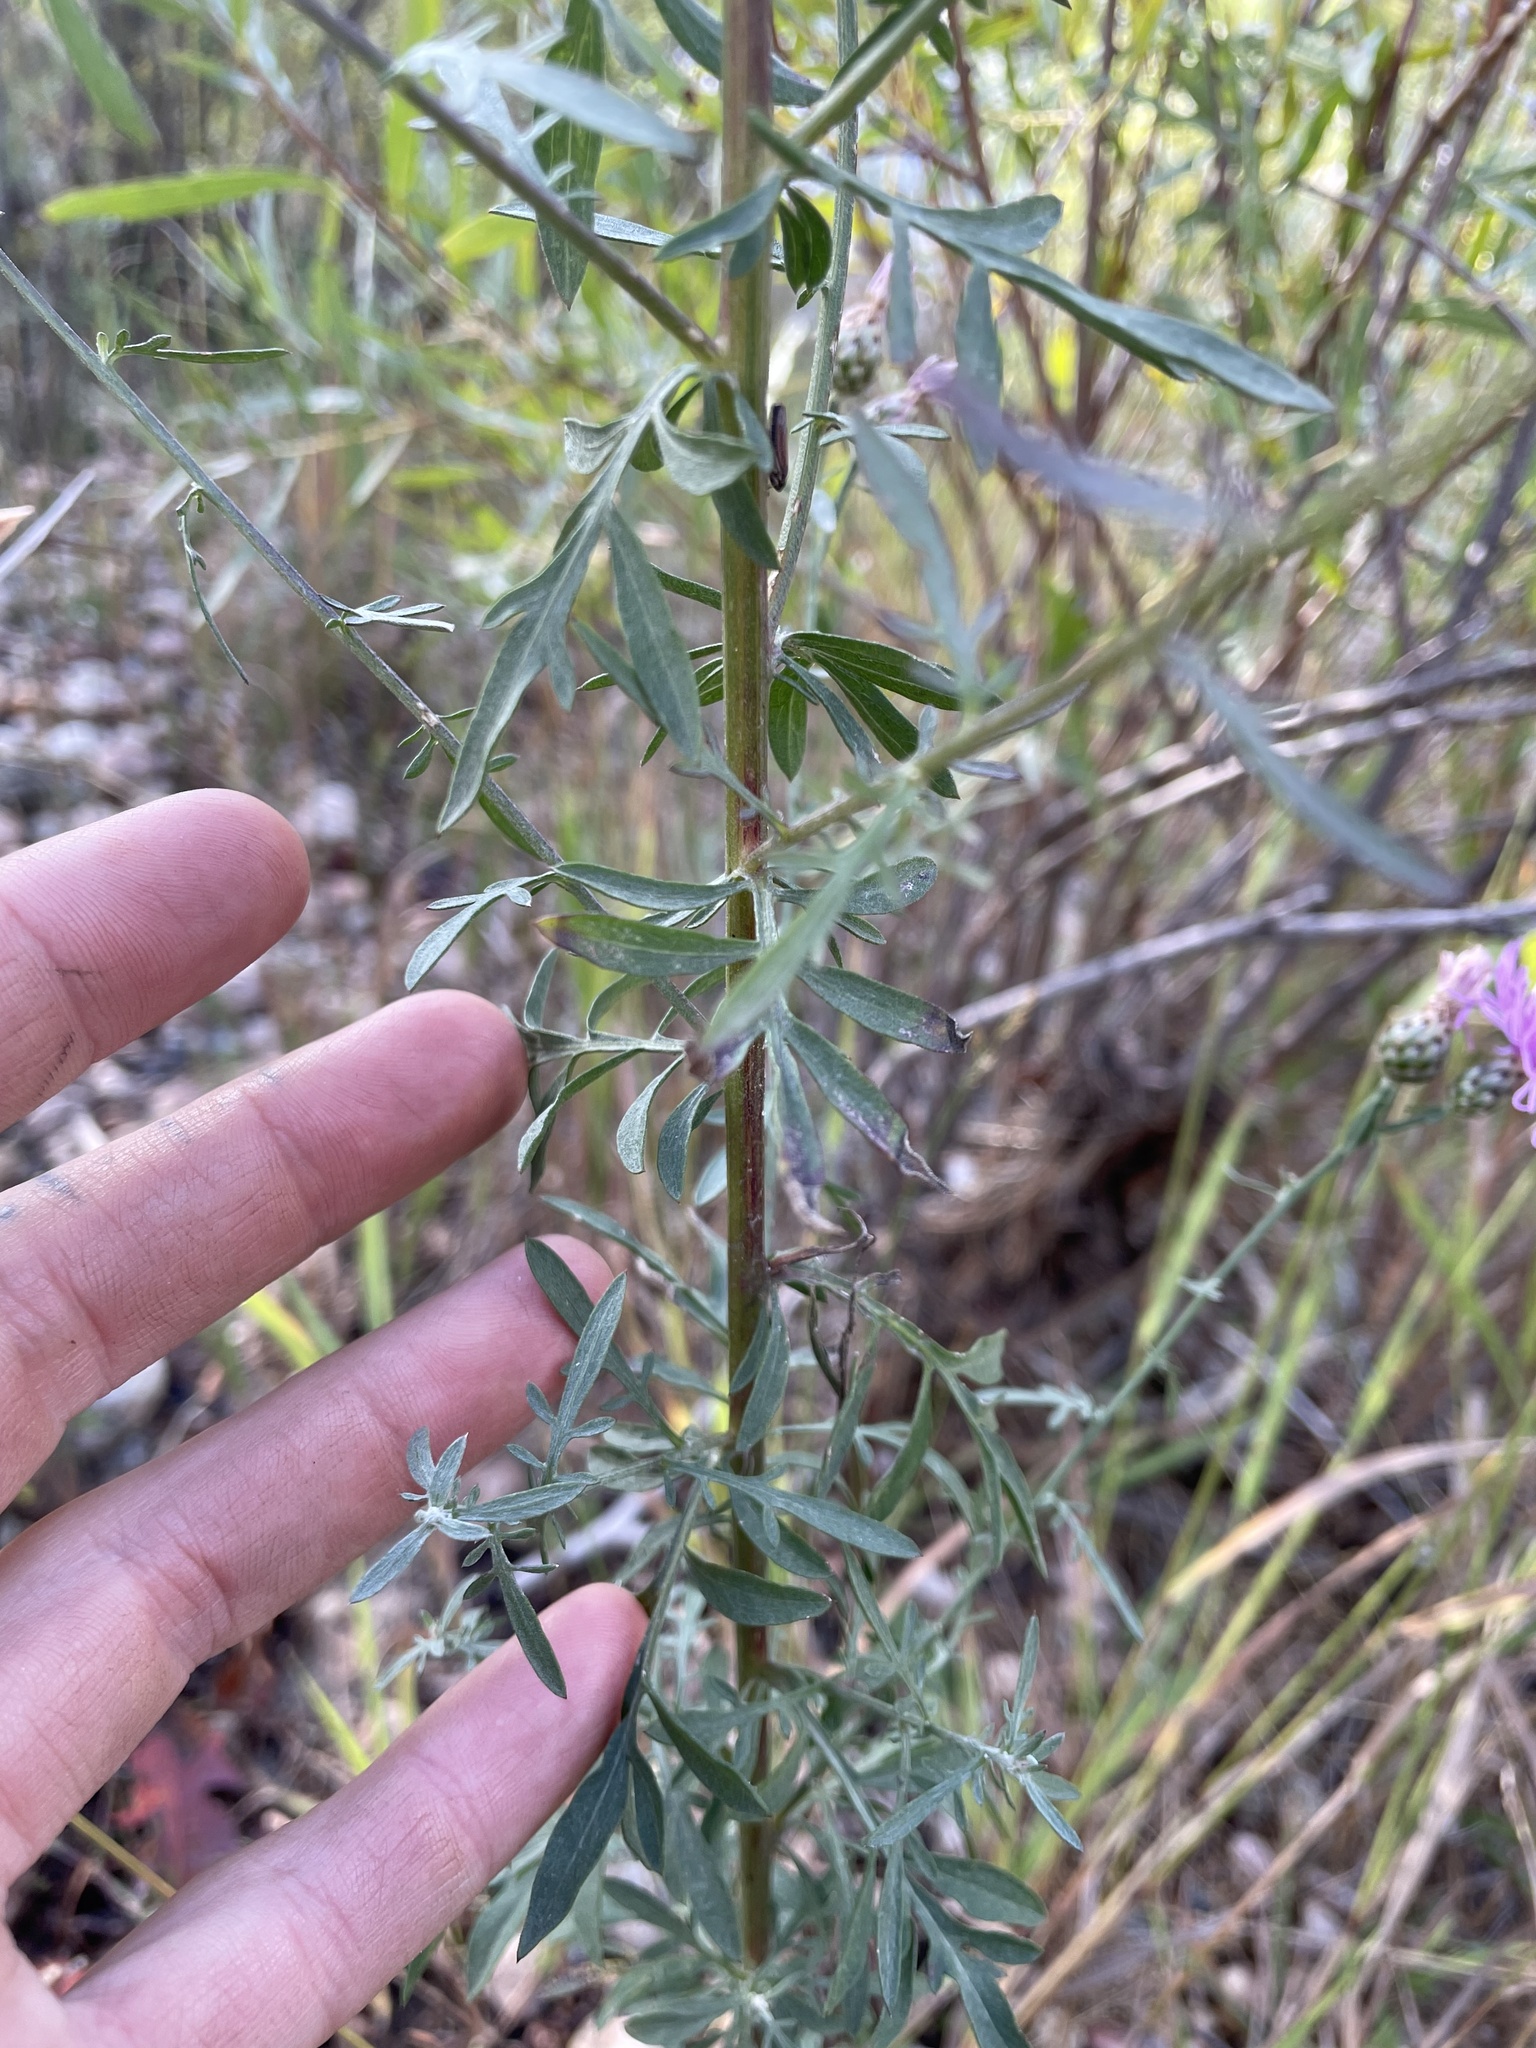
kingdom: Plantae
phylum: Tracheophyta
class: Magnoliopsida
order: Asterales
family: Asteraceae
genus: Centaurea
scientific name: Centaurea stoebe
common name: Spotted knapweed
